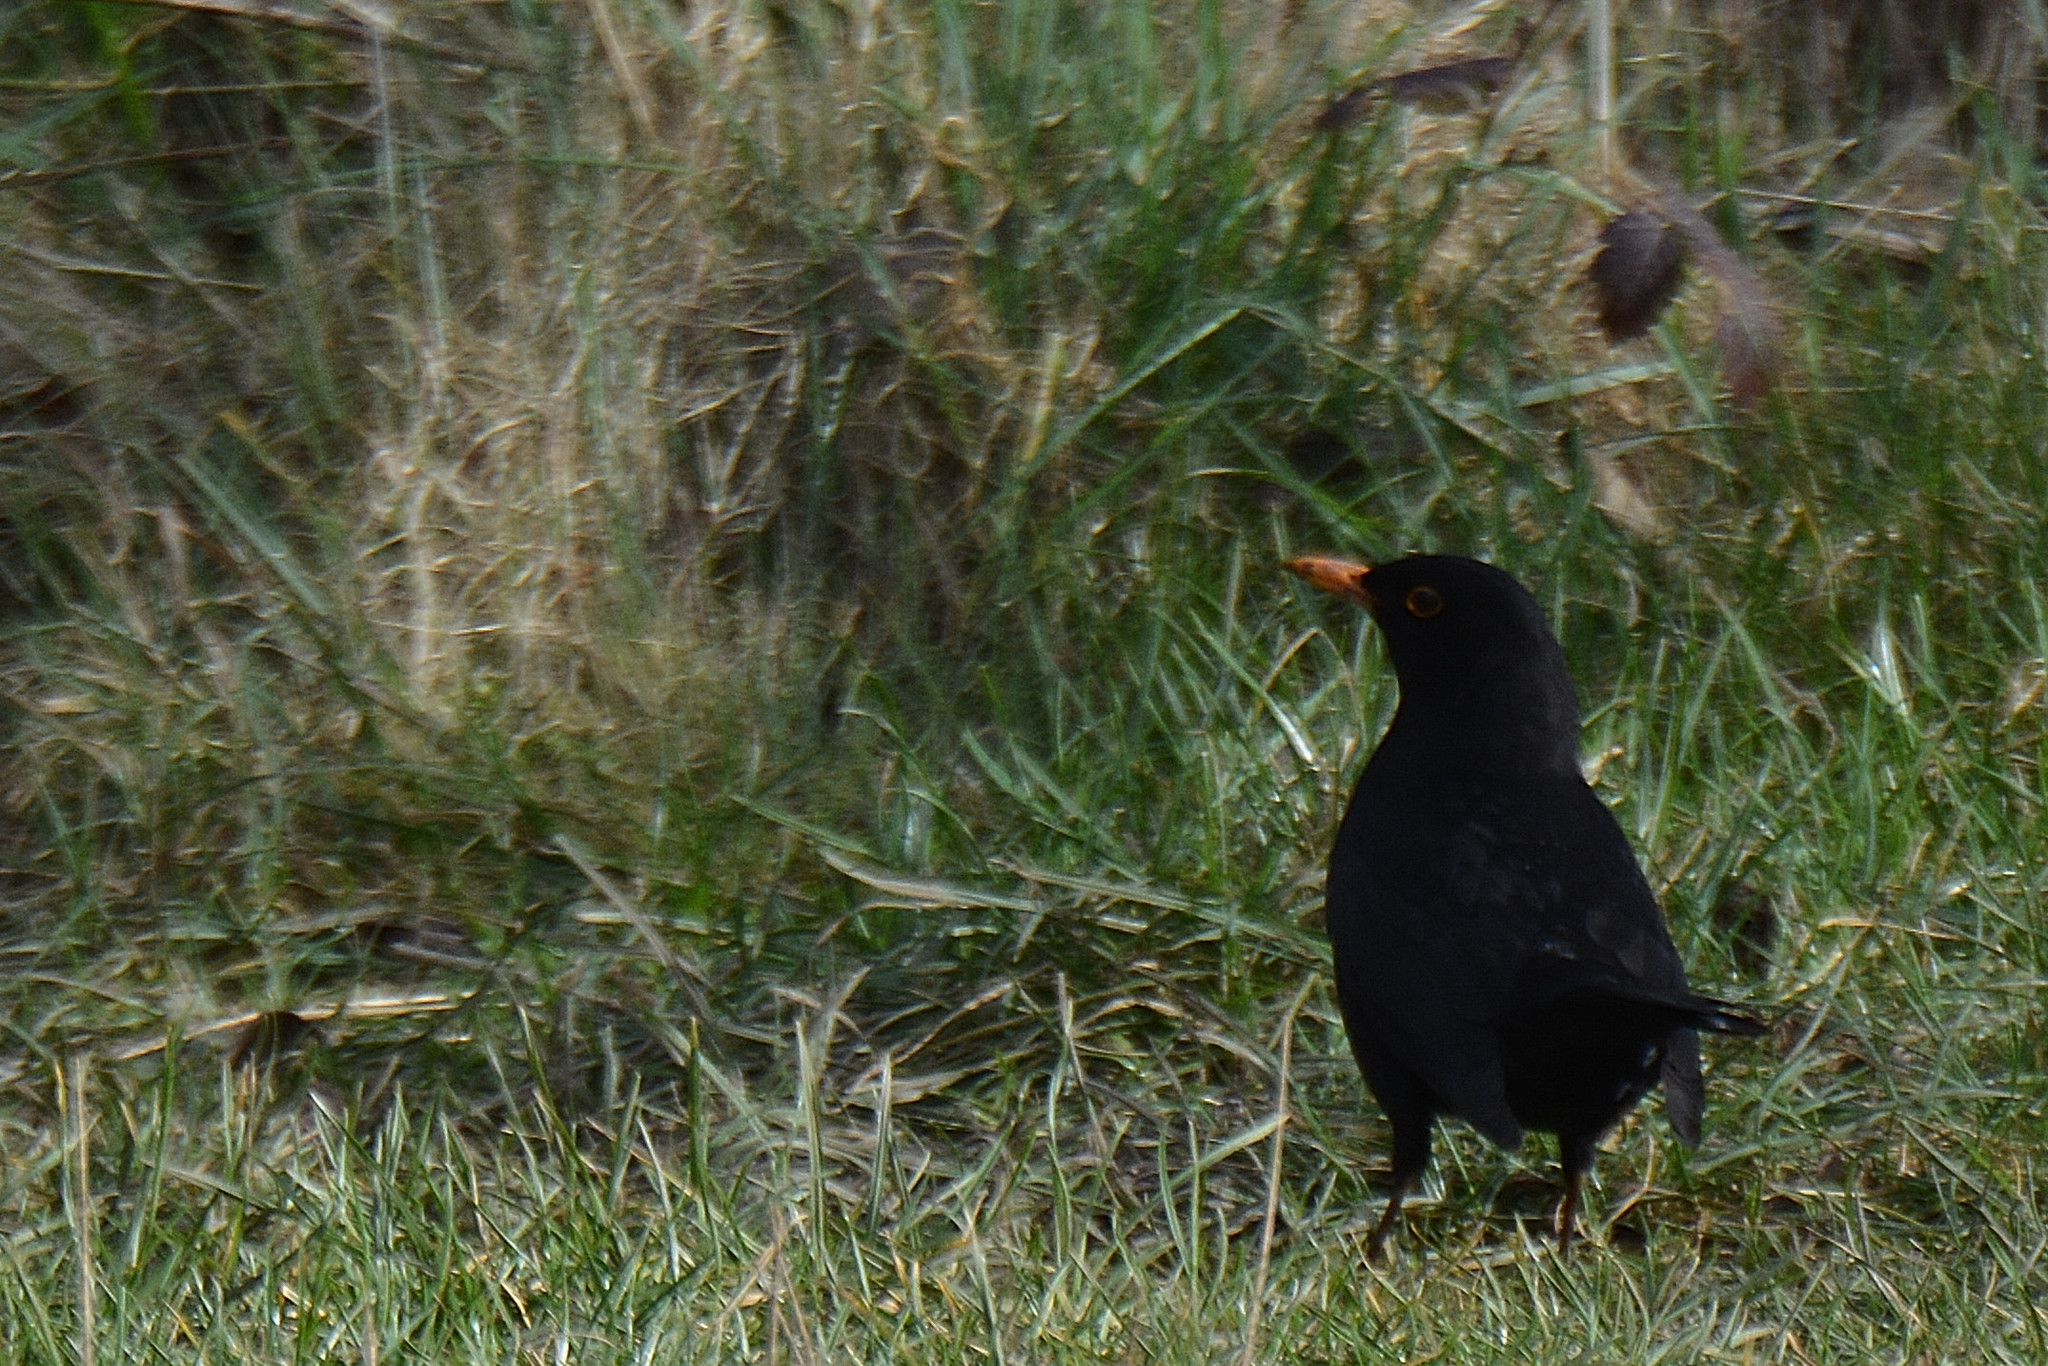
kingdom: Animalia
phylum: Chordata
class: Aves
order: Passeriformes
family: Turdidae
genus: Turdus
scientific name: Turdus merula
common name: Common blackbird
